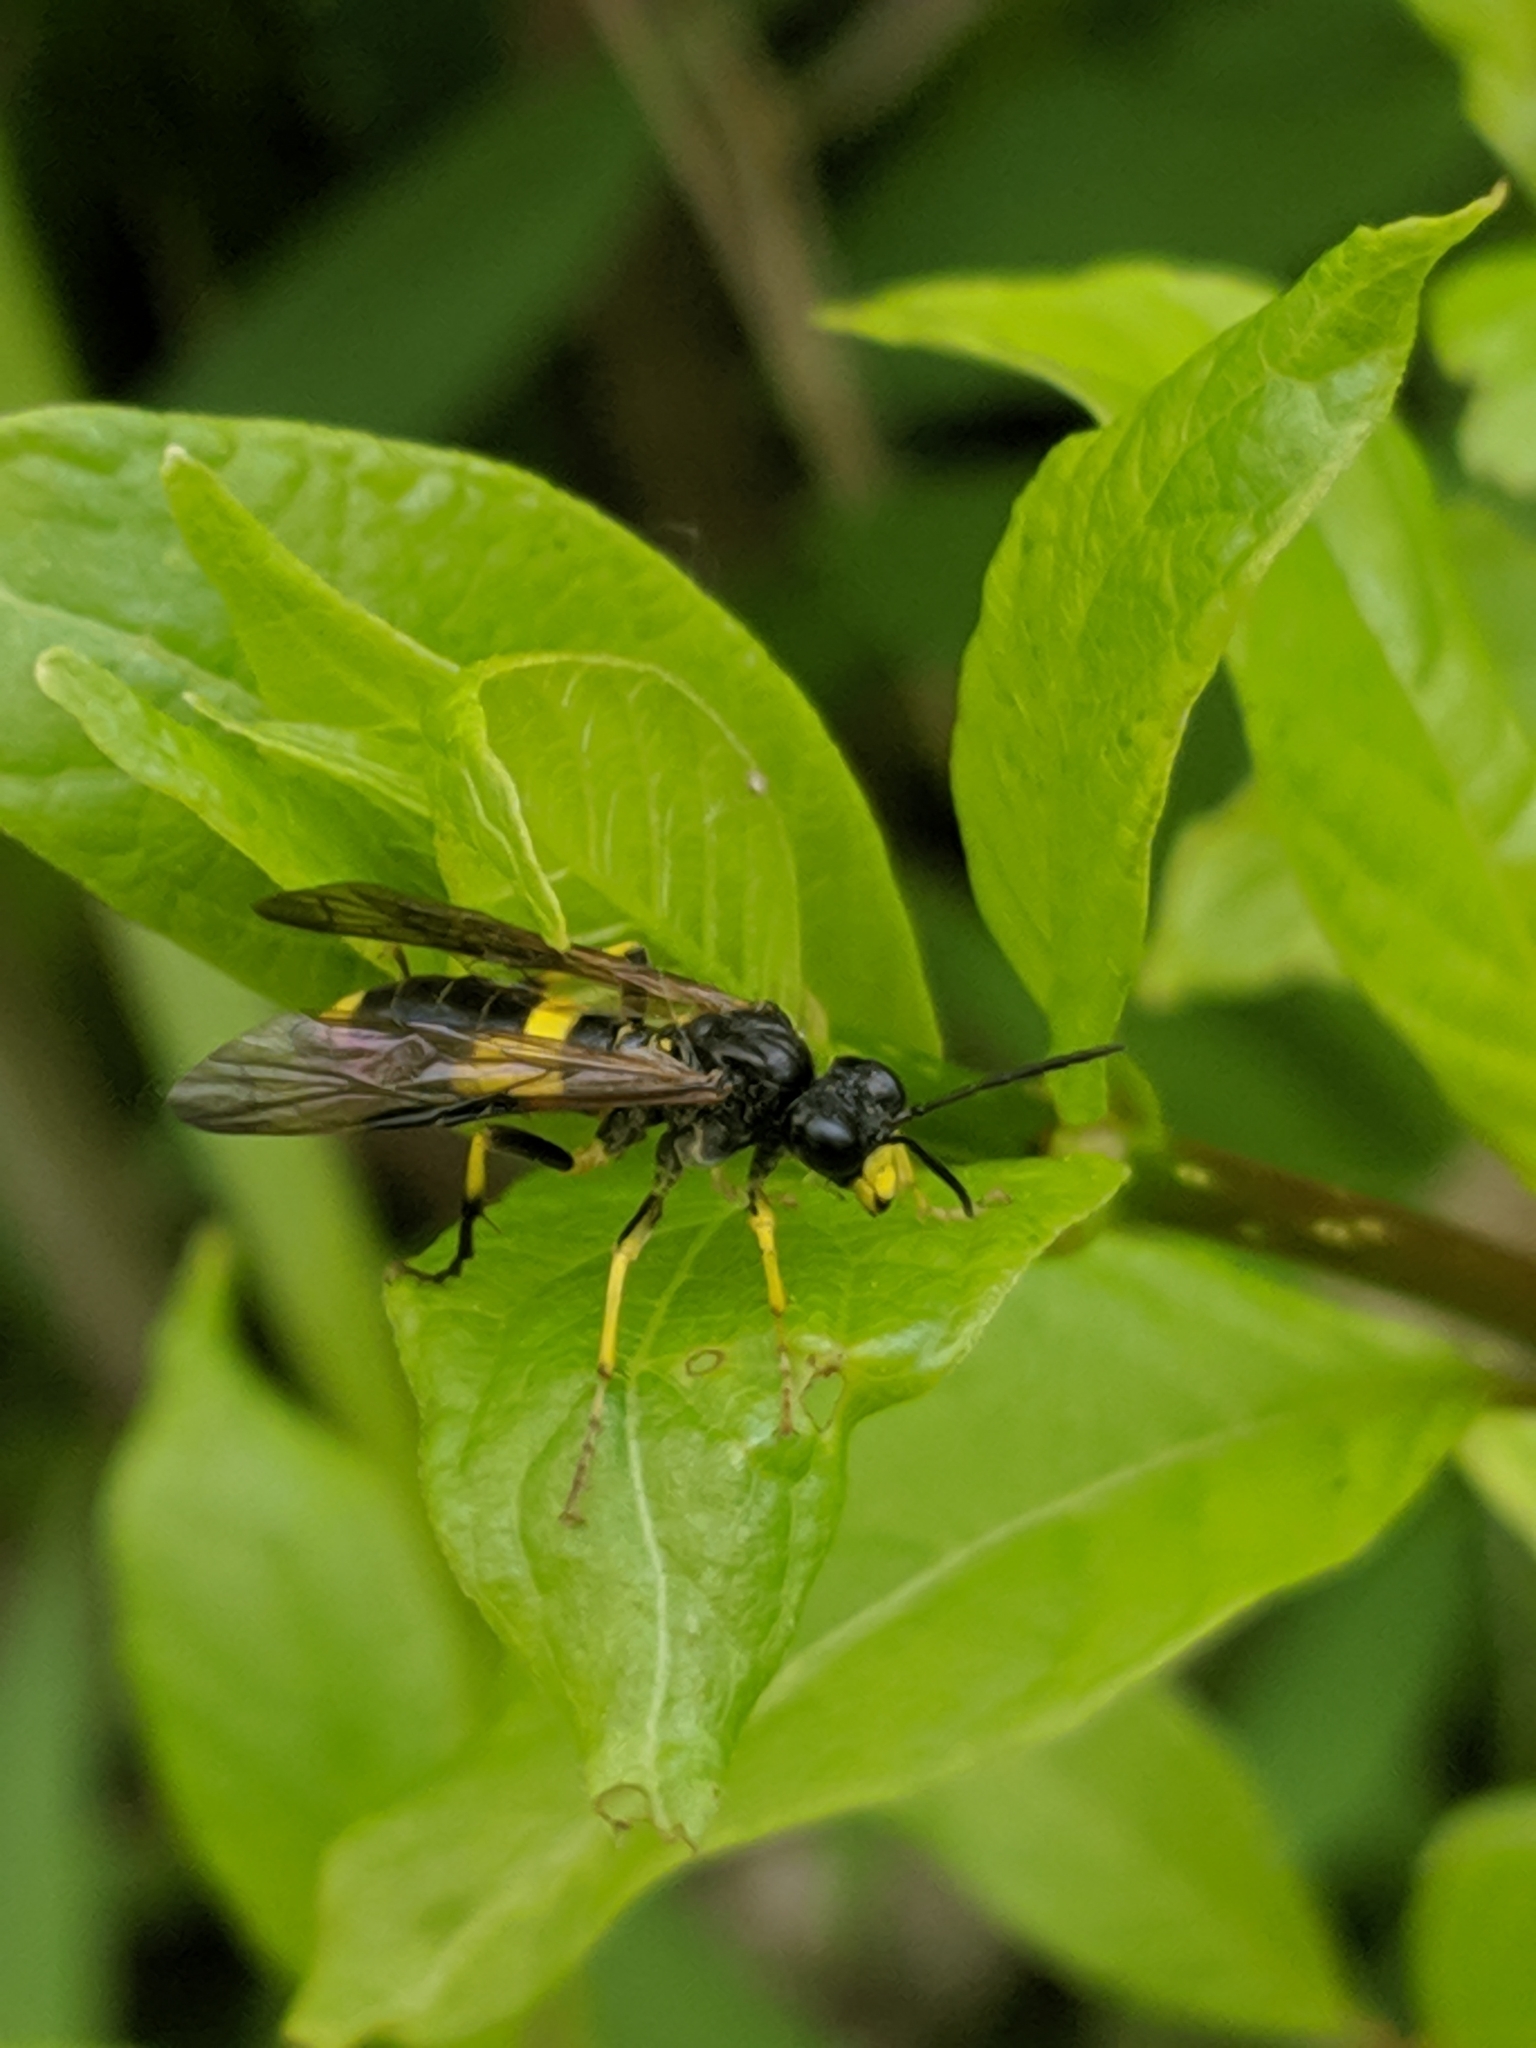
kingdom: Animalia
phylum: Arthropoda
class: Insecta
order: Hymenoptera
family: Tenthredinidae
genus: Tenthredo
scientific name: Tenthredo temula
